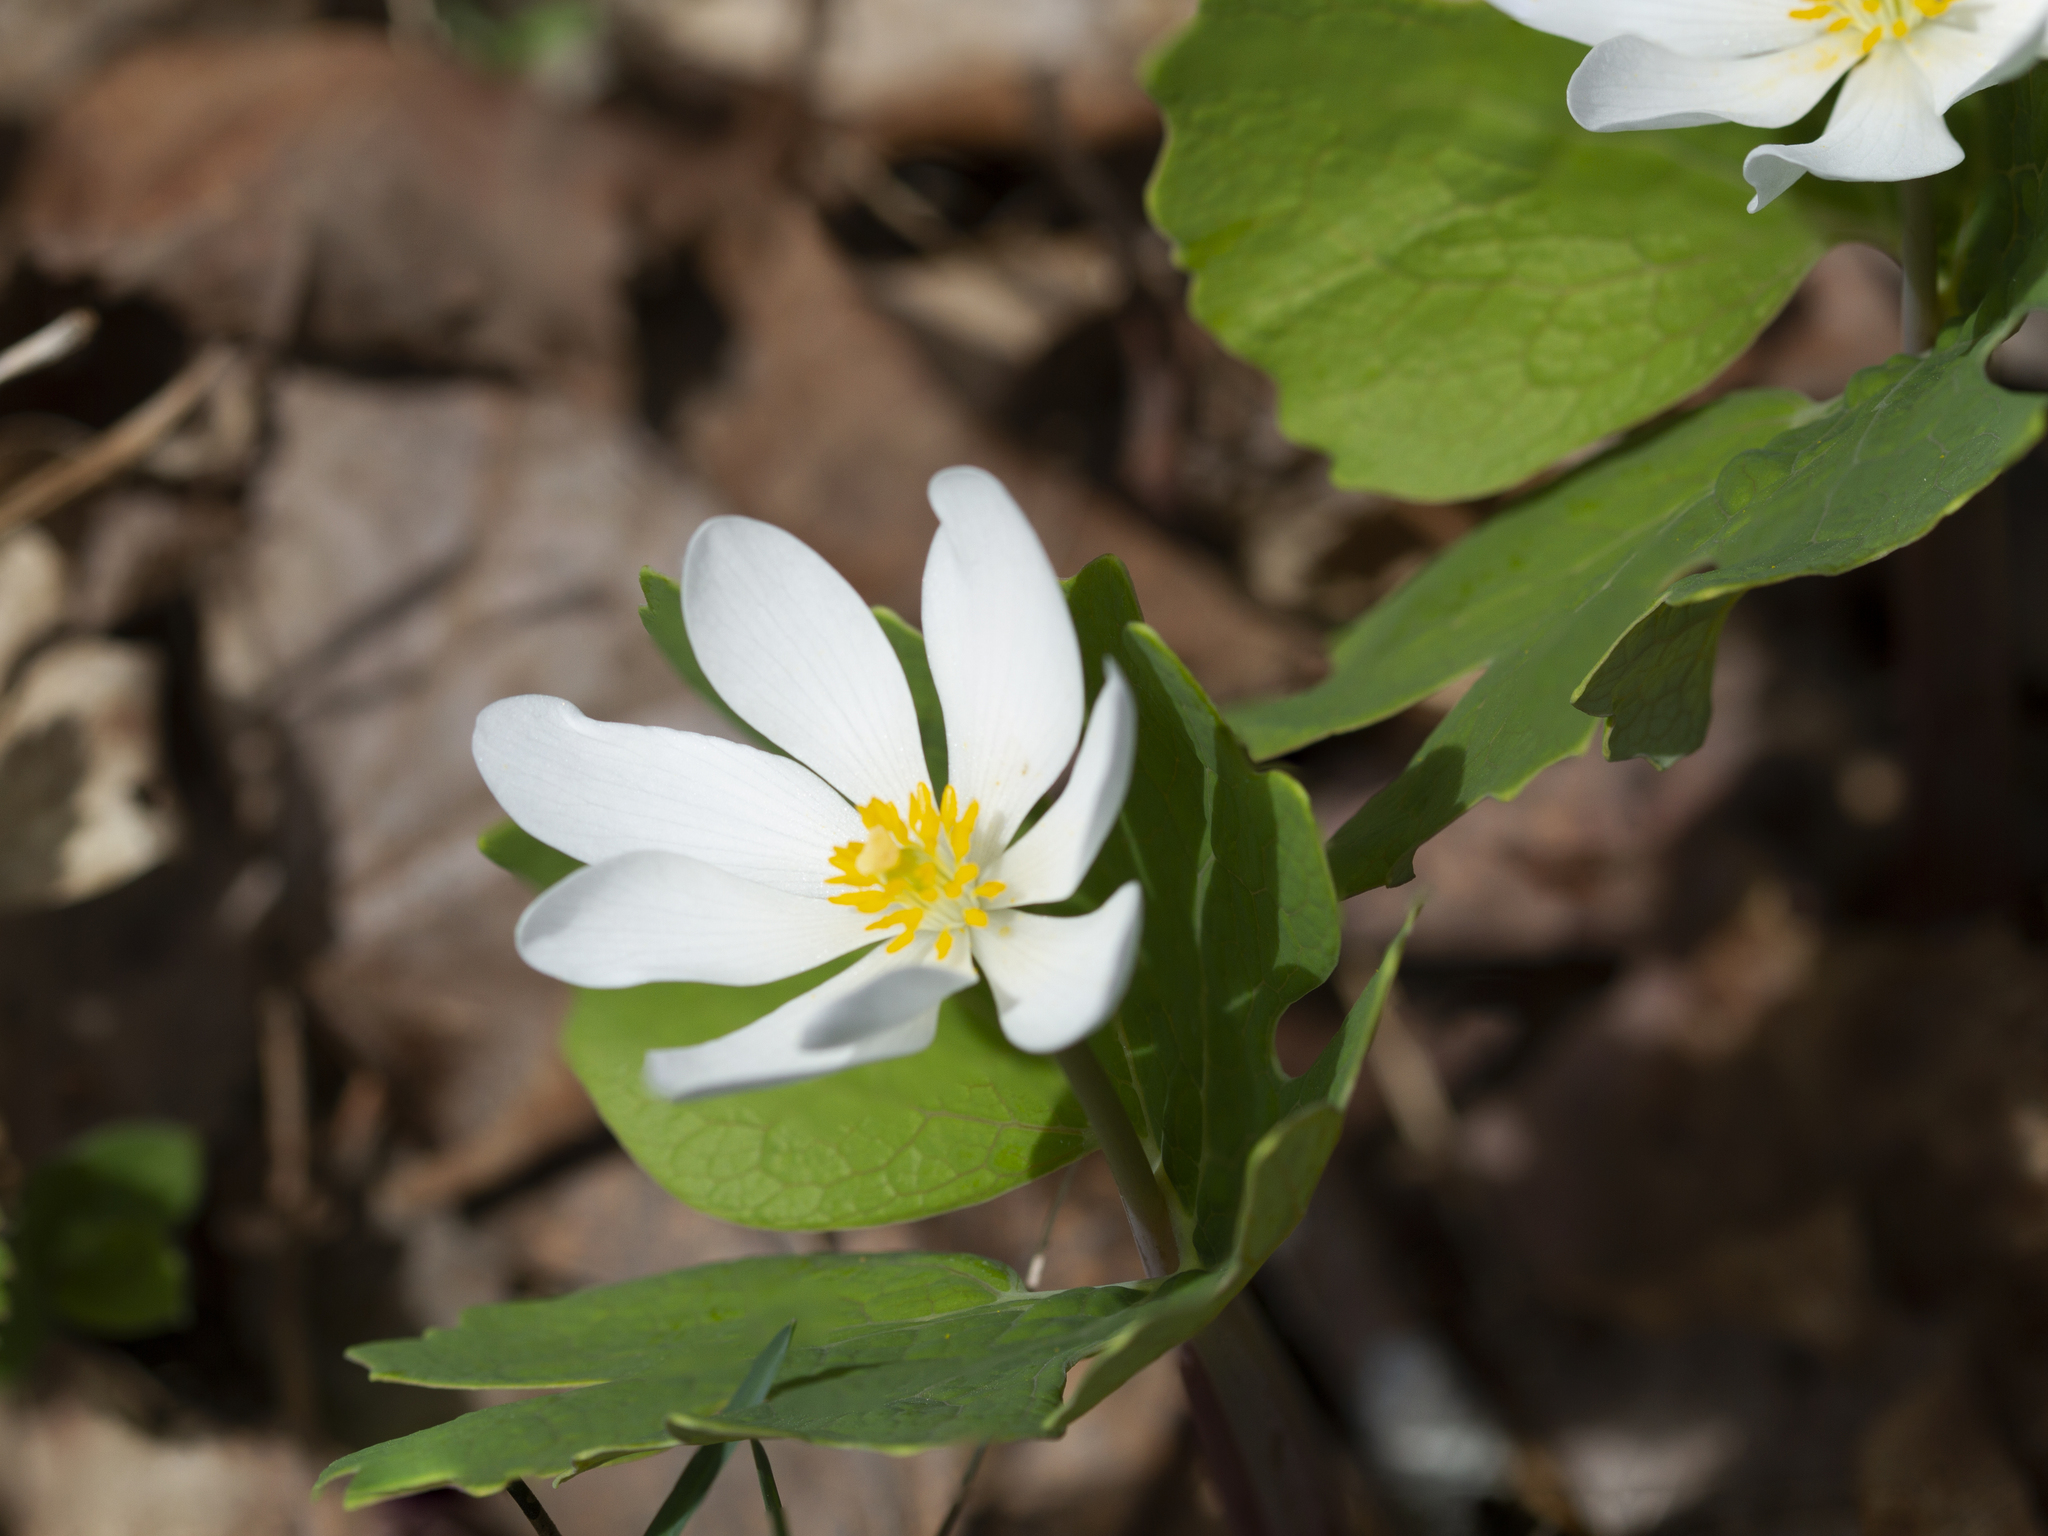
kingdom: Plantae
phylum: Tracheophyta
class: Magnoliopsida
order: Ranunculales
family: Papaveraceae
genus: Sanguinaria
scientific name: Sanguinaria canadensis
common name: Bloodroot
